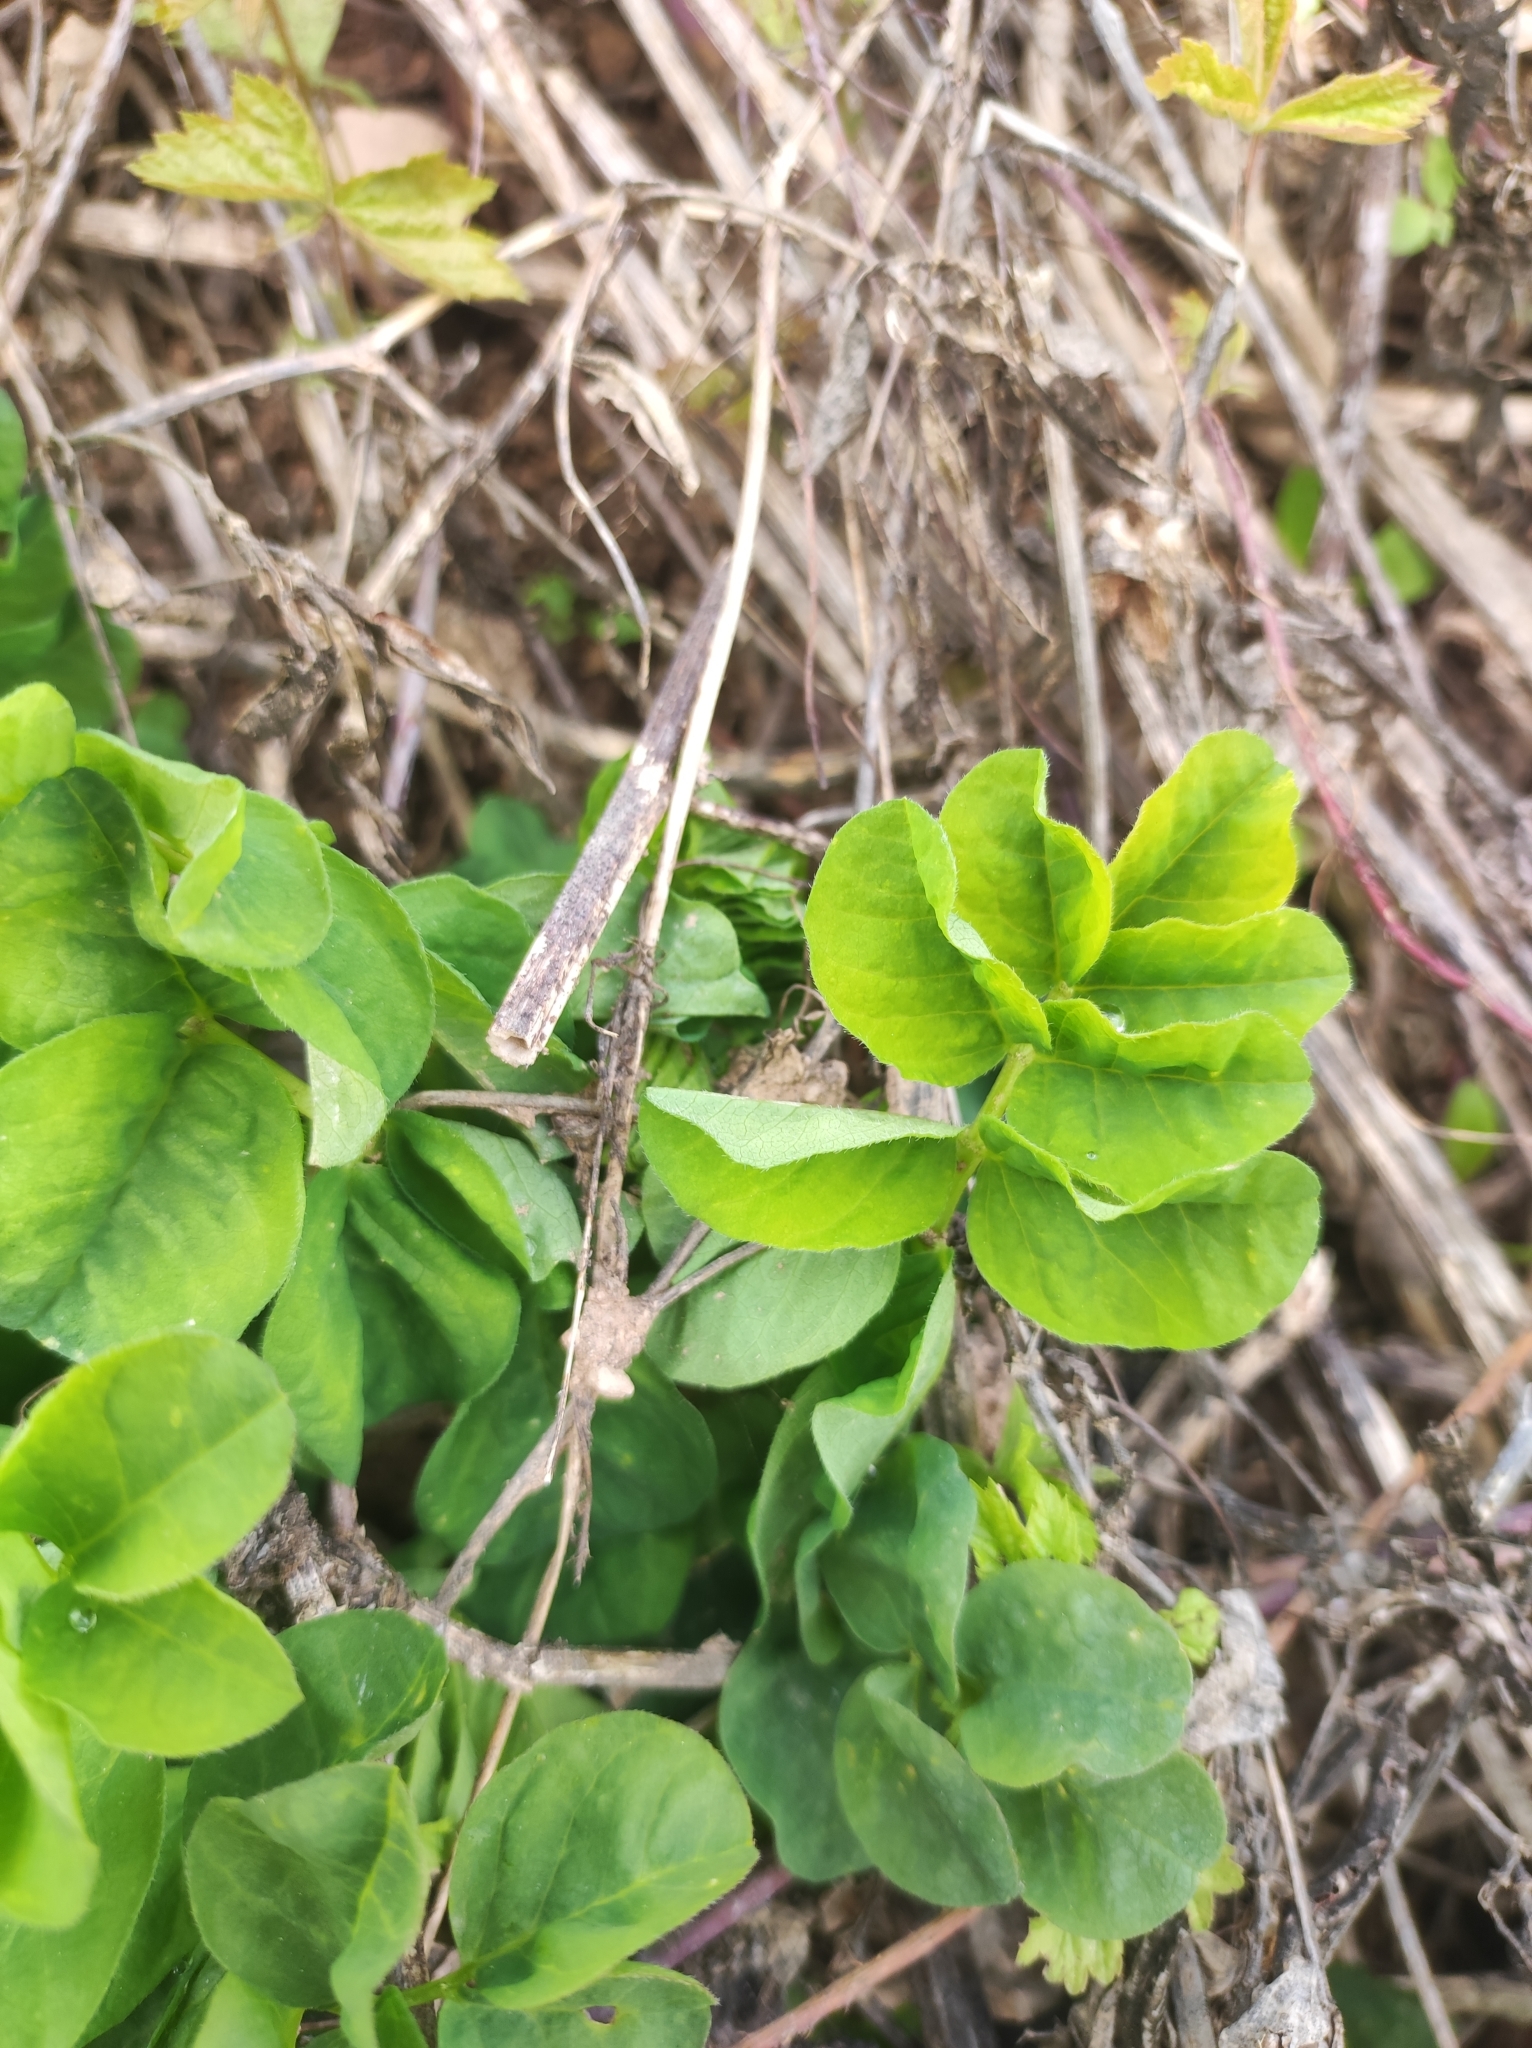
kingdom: Plantae
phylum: Tracheophyta
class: Magnoliopsida
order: Fabales
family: Fabaceae
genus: Astragalus
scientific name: Astragalus glycyphyllos
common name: Wild liquorice
